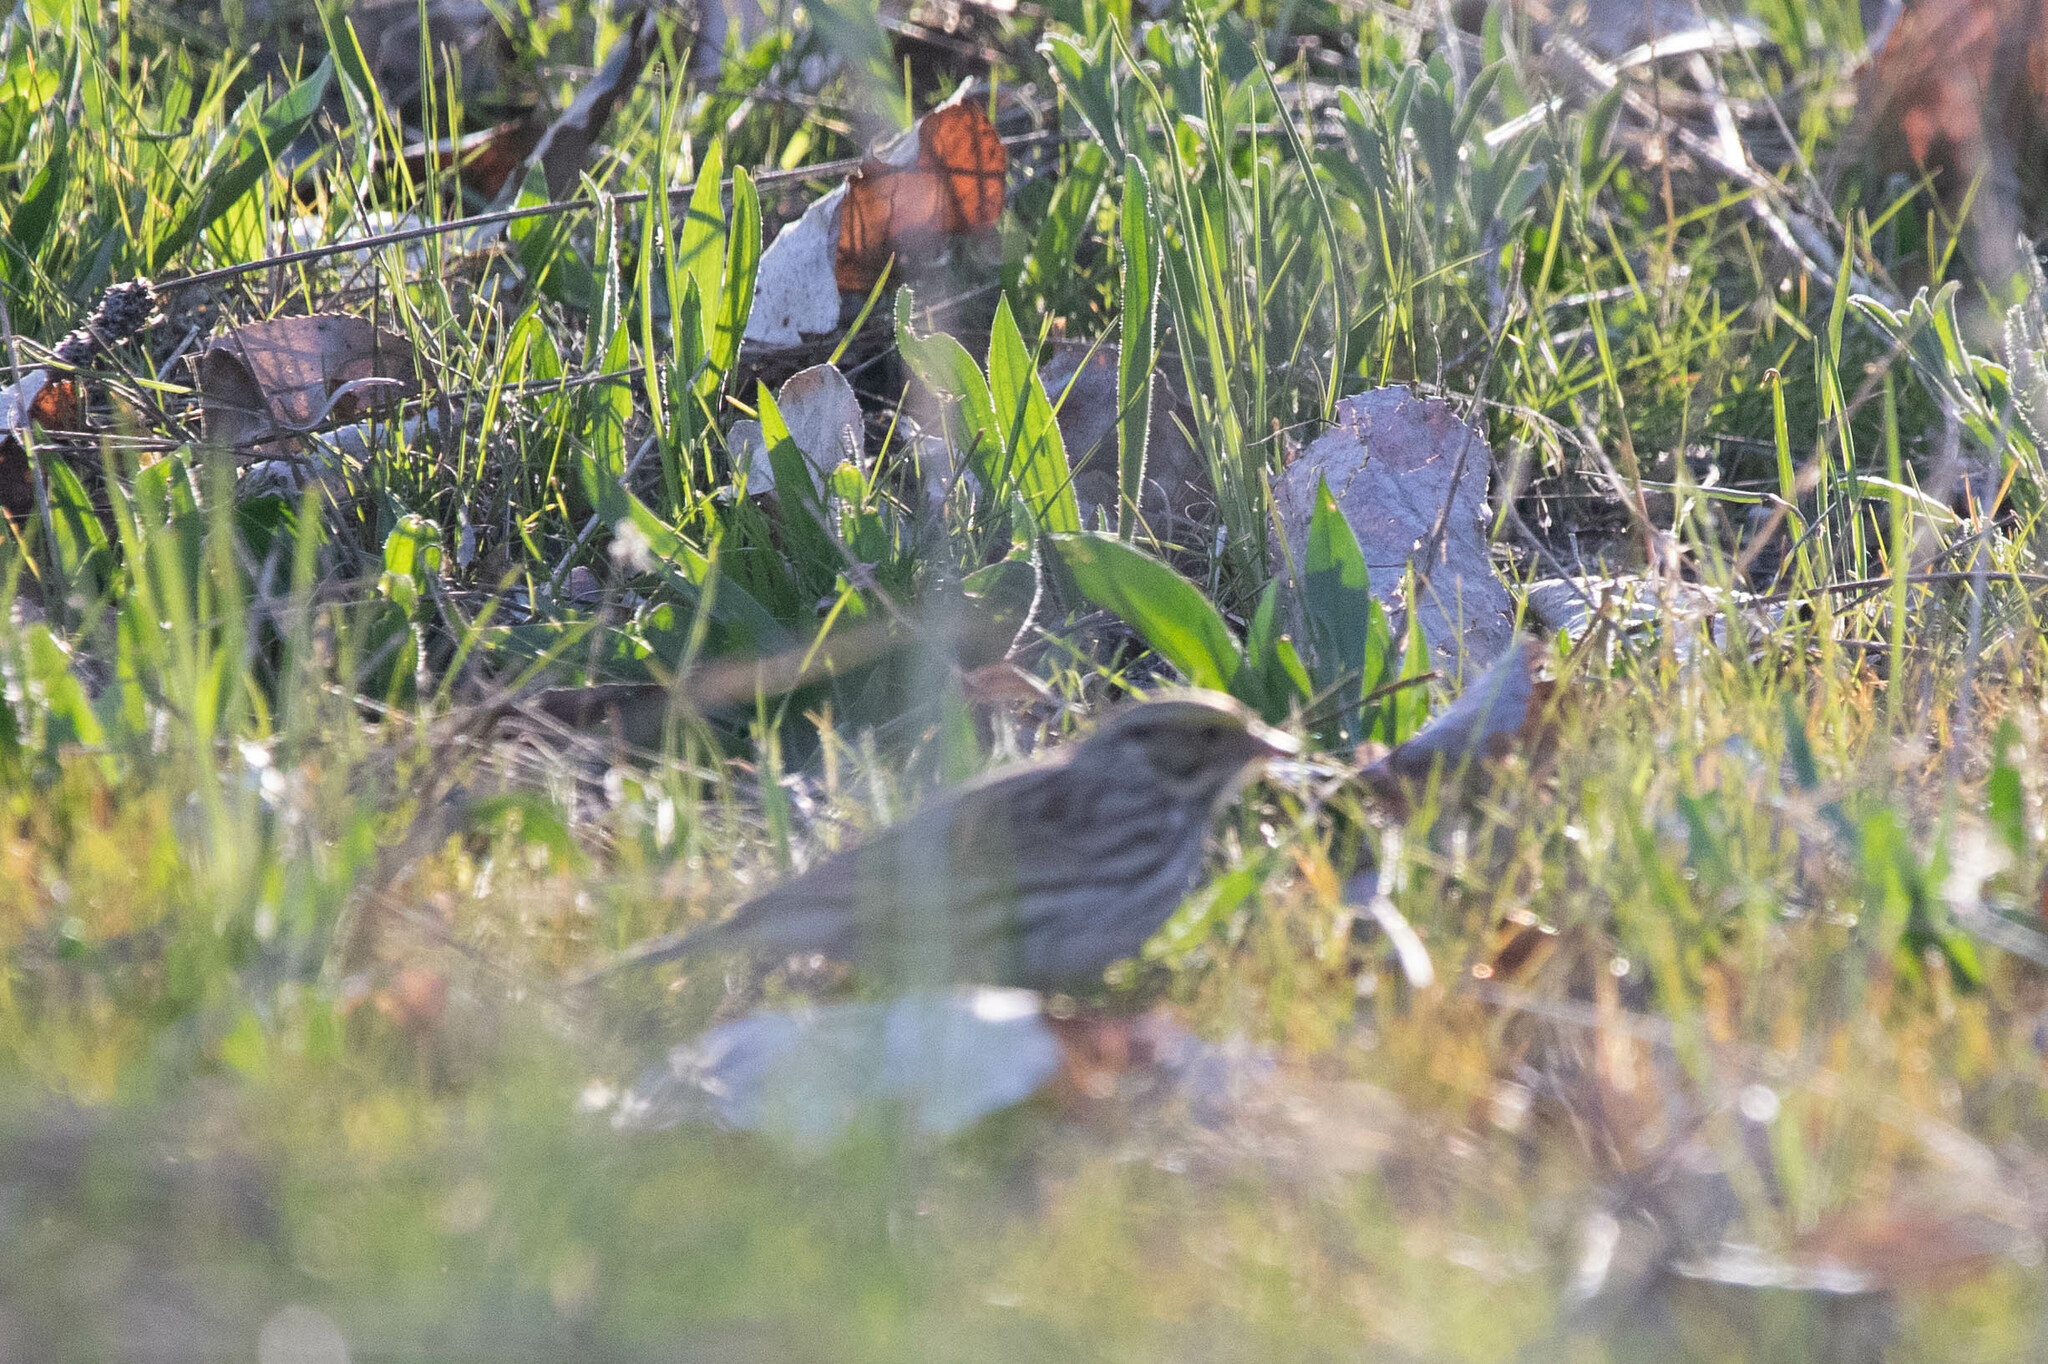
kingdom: Animalia
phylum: Chordata
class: Aves
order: Passeriformes
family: Passerellidae
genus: Passerculus
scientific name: Passerculus sandwichensis
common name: Savannah sparrow
